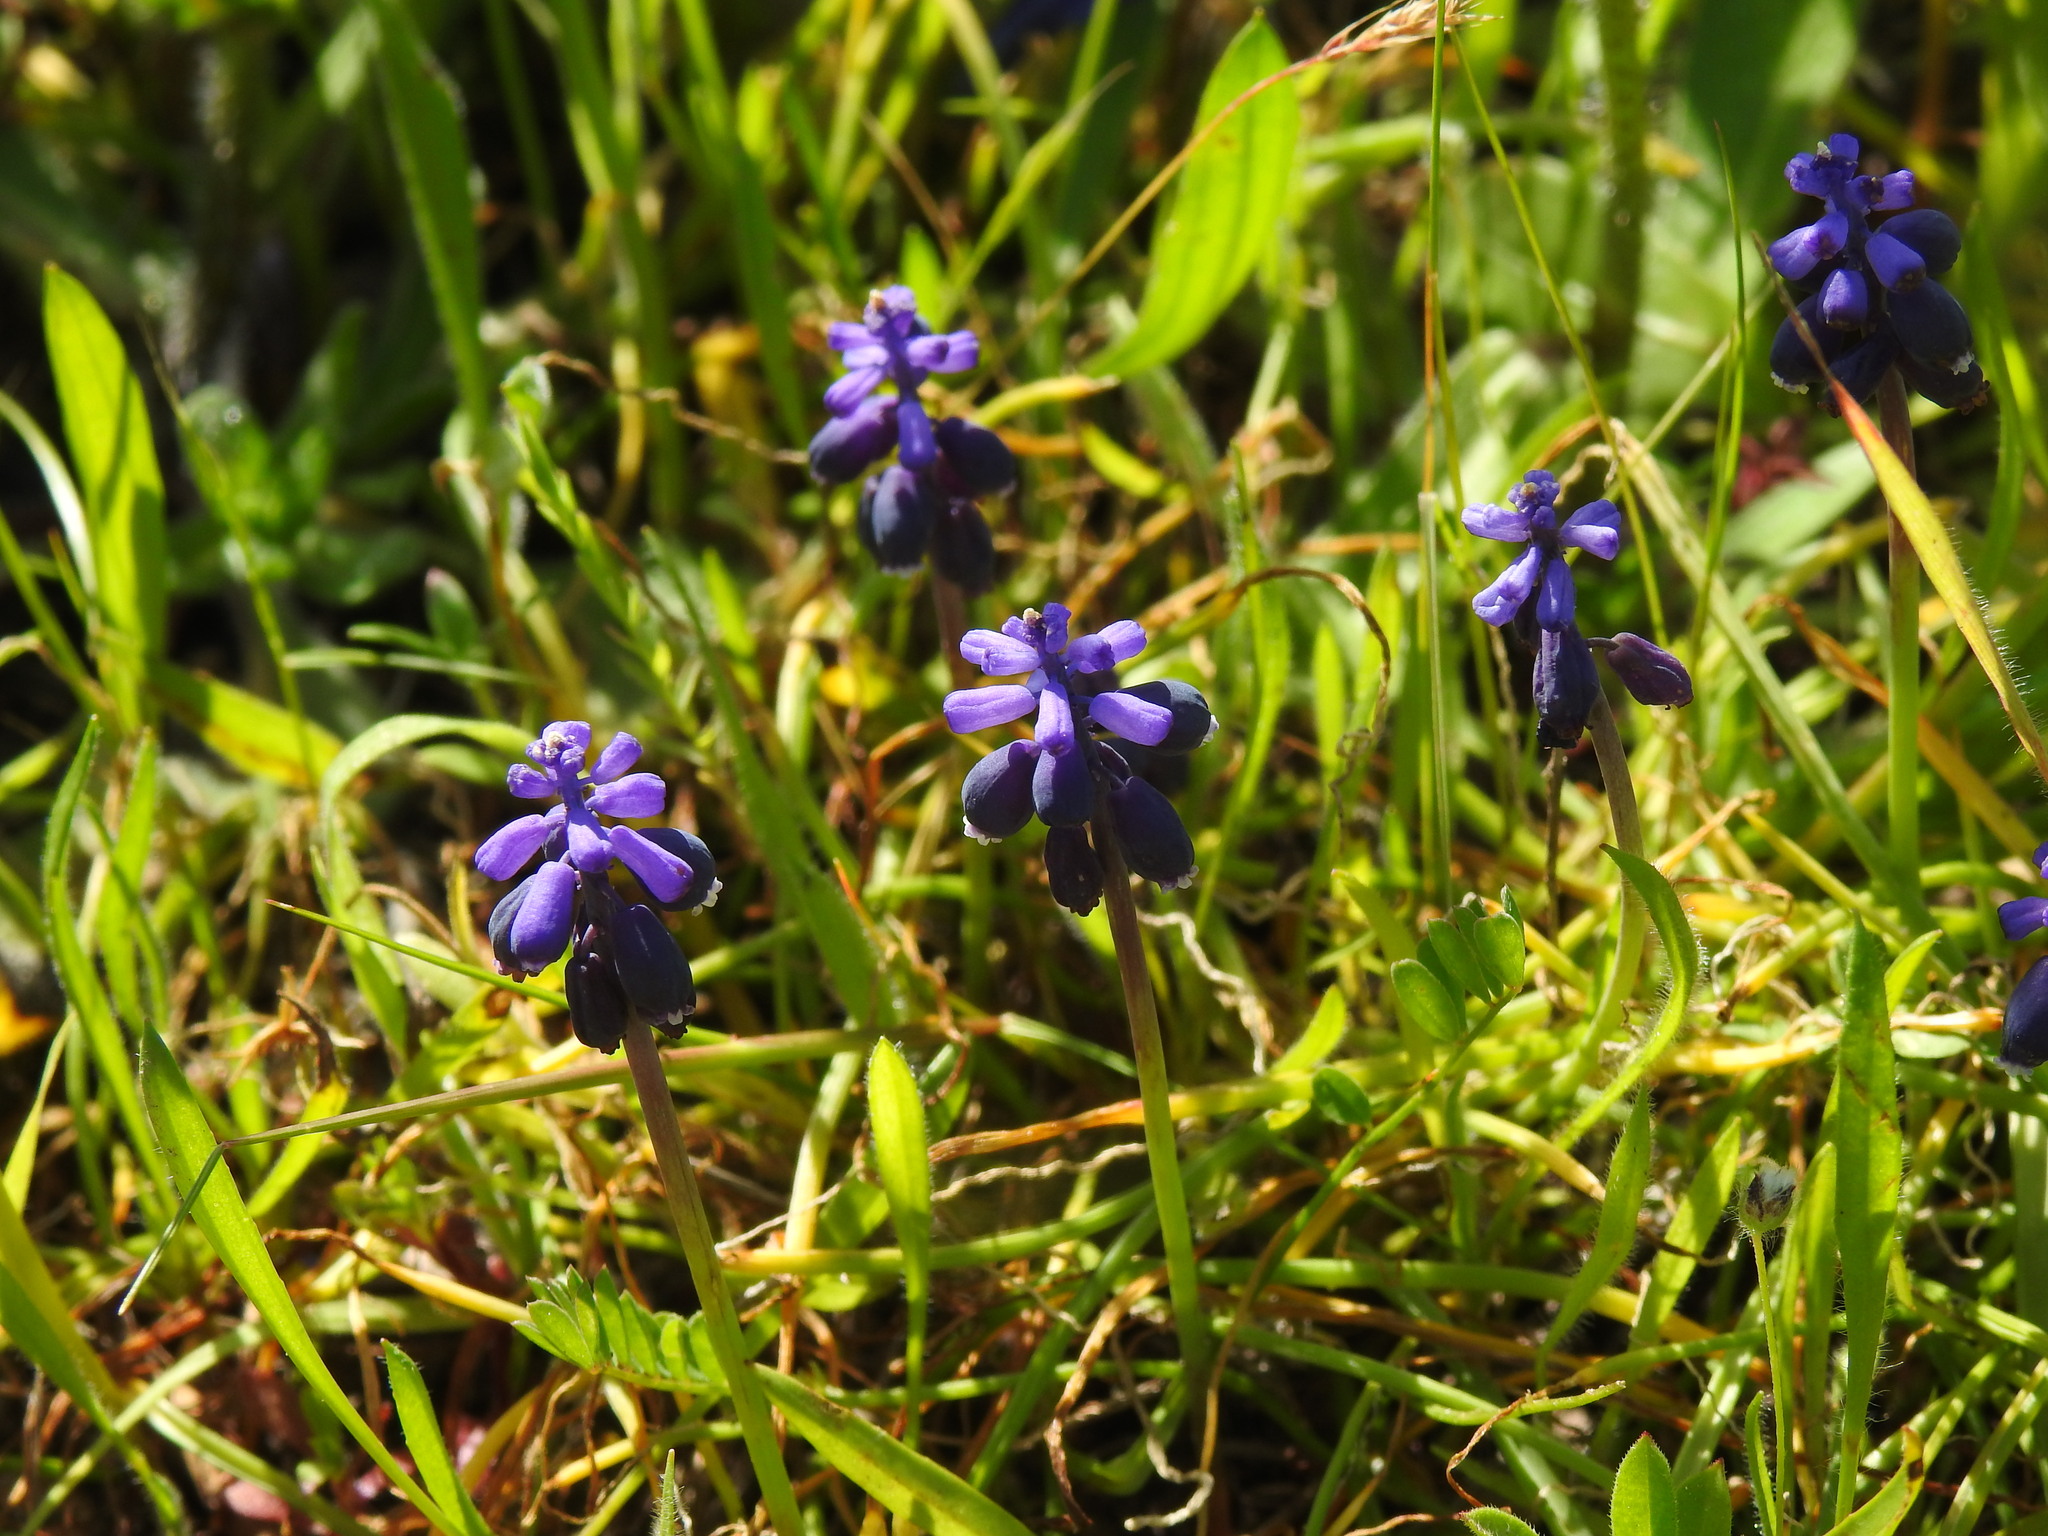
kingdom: Plantae
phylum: Tracheophyta
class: Liliopsida
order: Asparagales
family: Asparagaceae
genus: Muscari
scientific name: Muscari neglectum
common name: Grape-hyacinth
